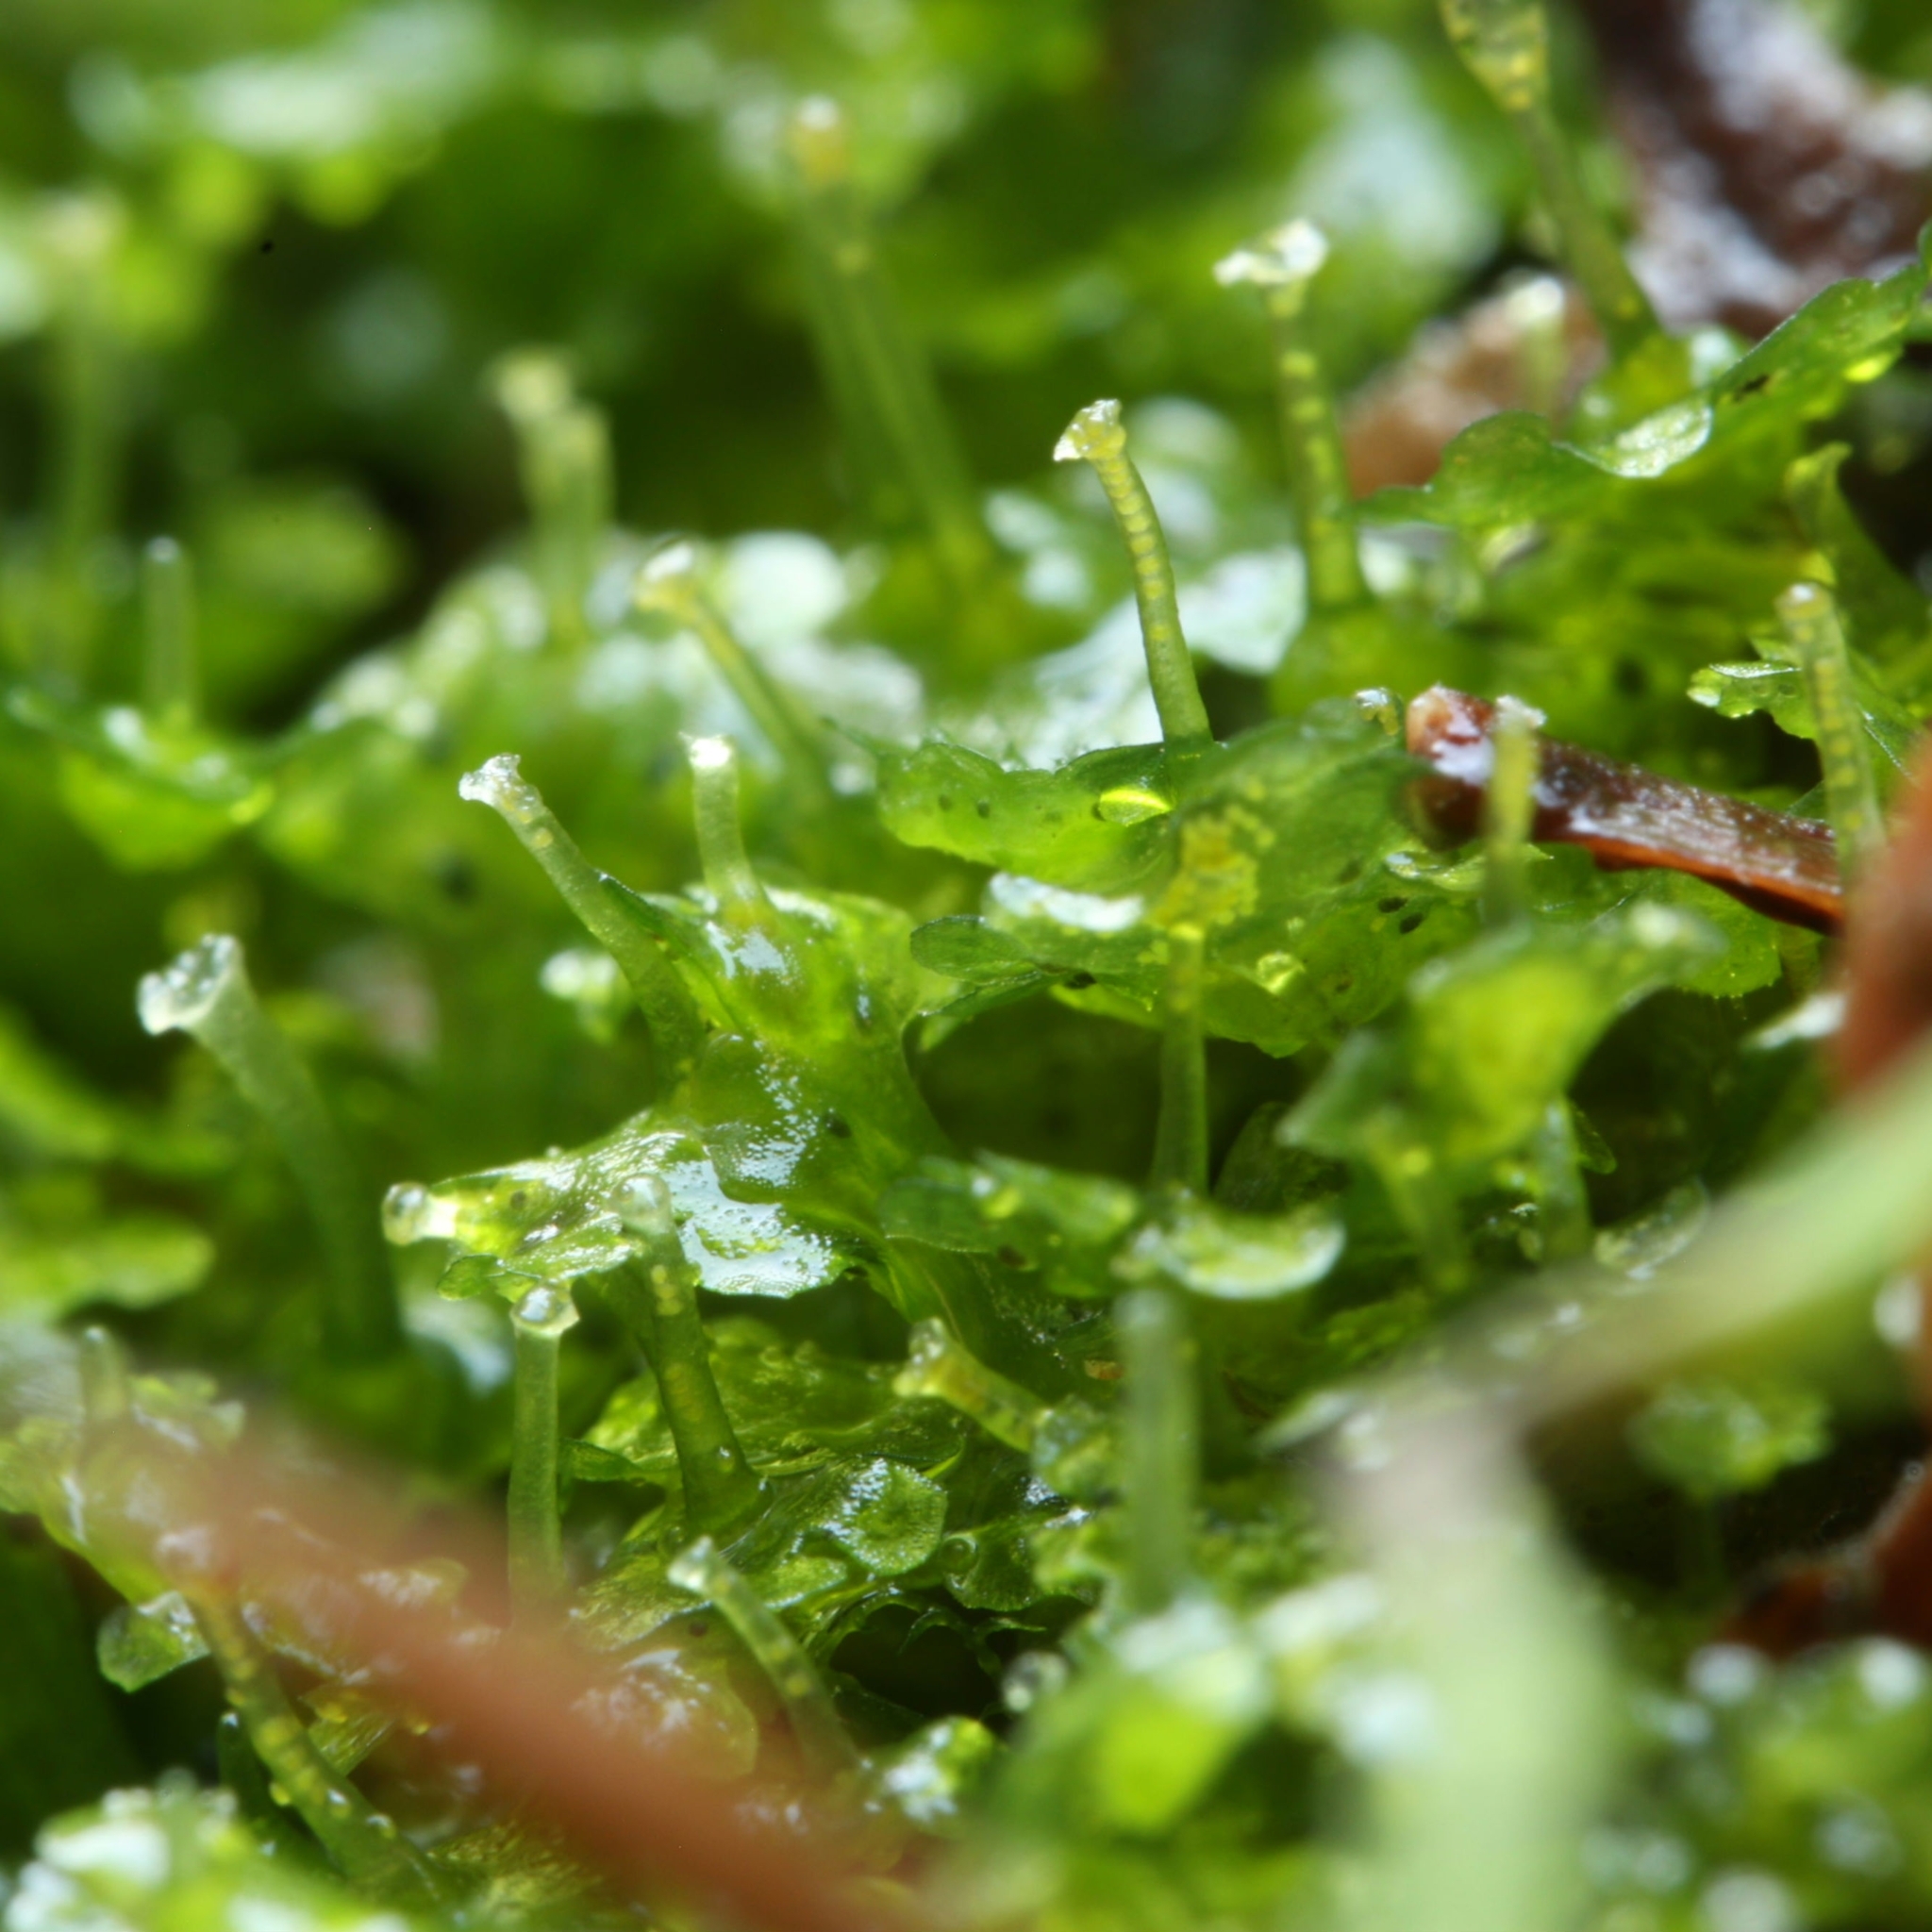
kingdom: Plantae
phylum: Marchantiophyta
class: Marchantiopsida
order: Blasiales
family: Blasiaceae
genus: Blasia
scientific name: Blasia pusilla
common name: Common kettlewort
